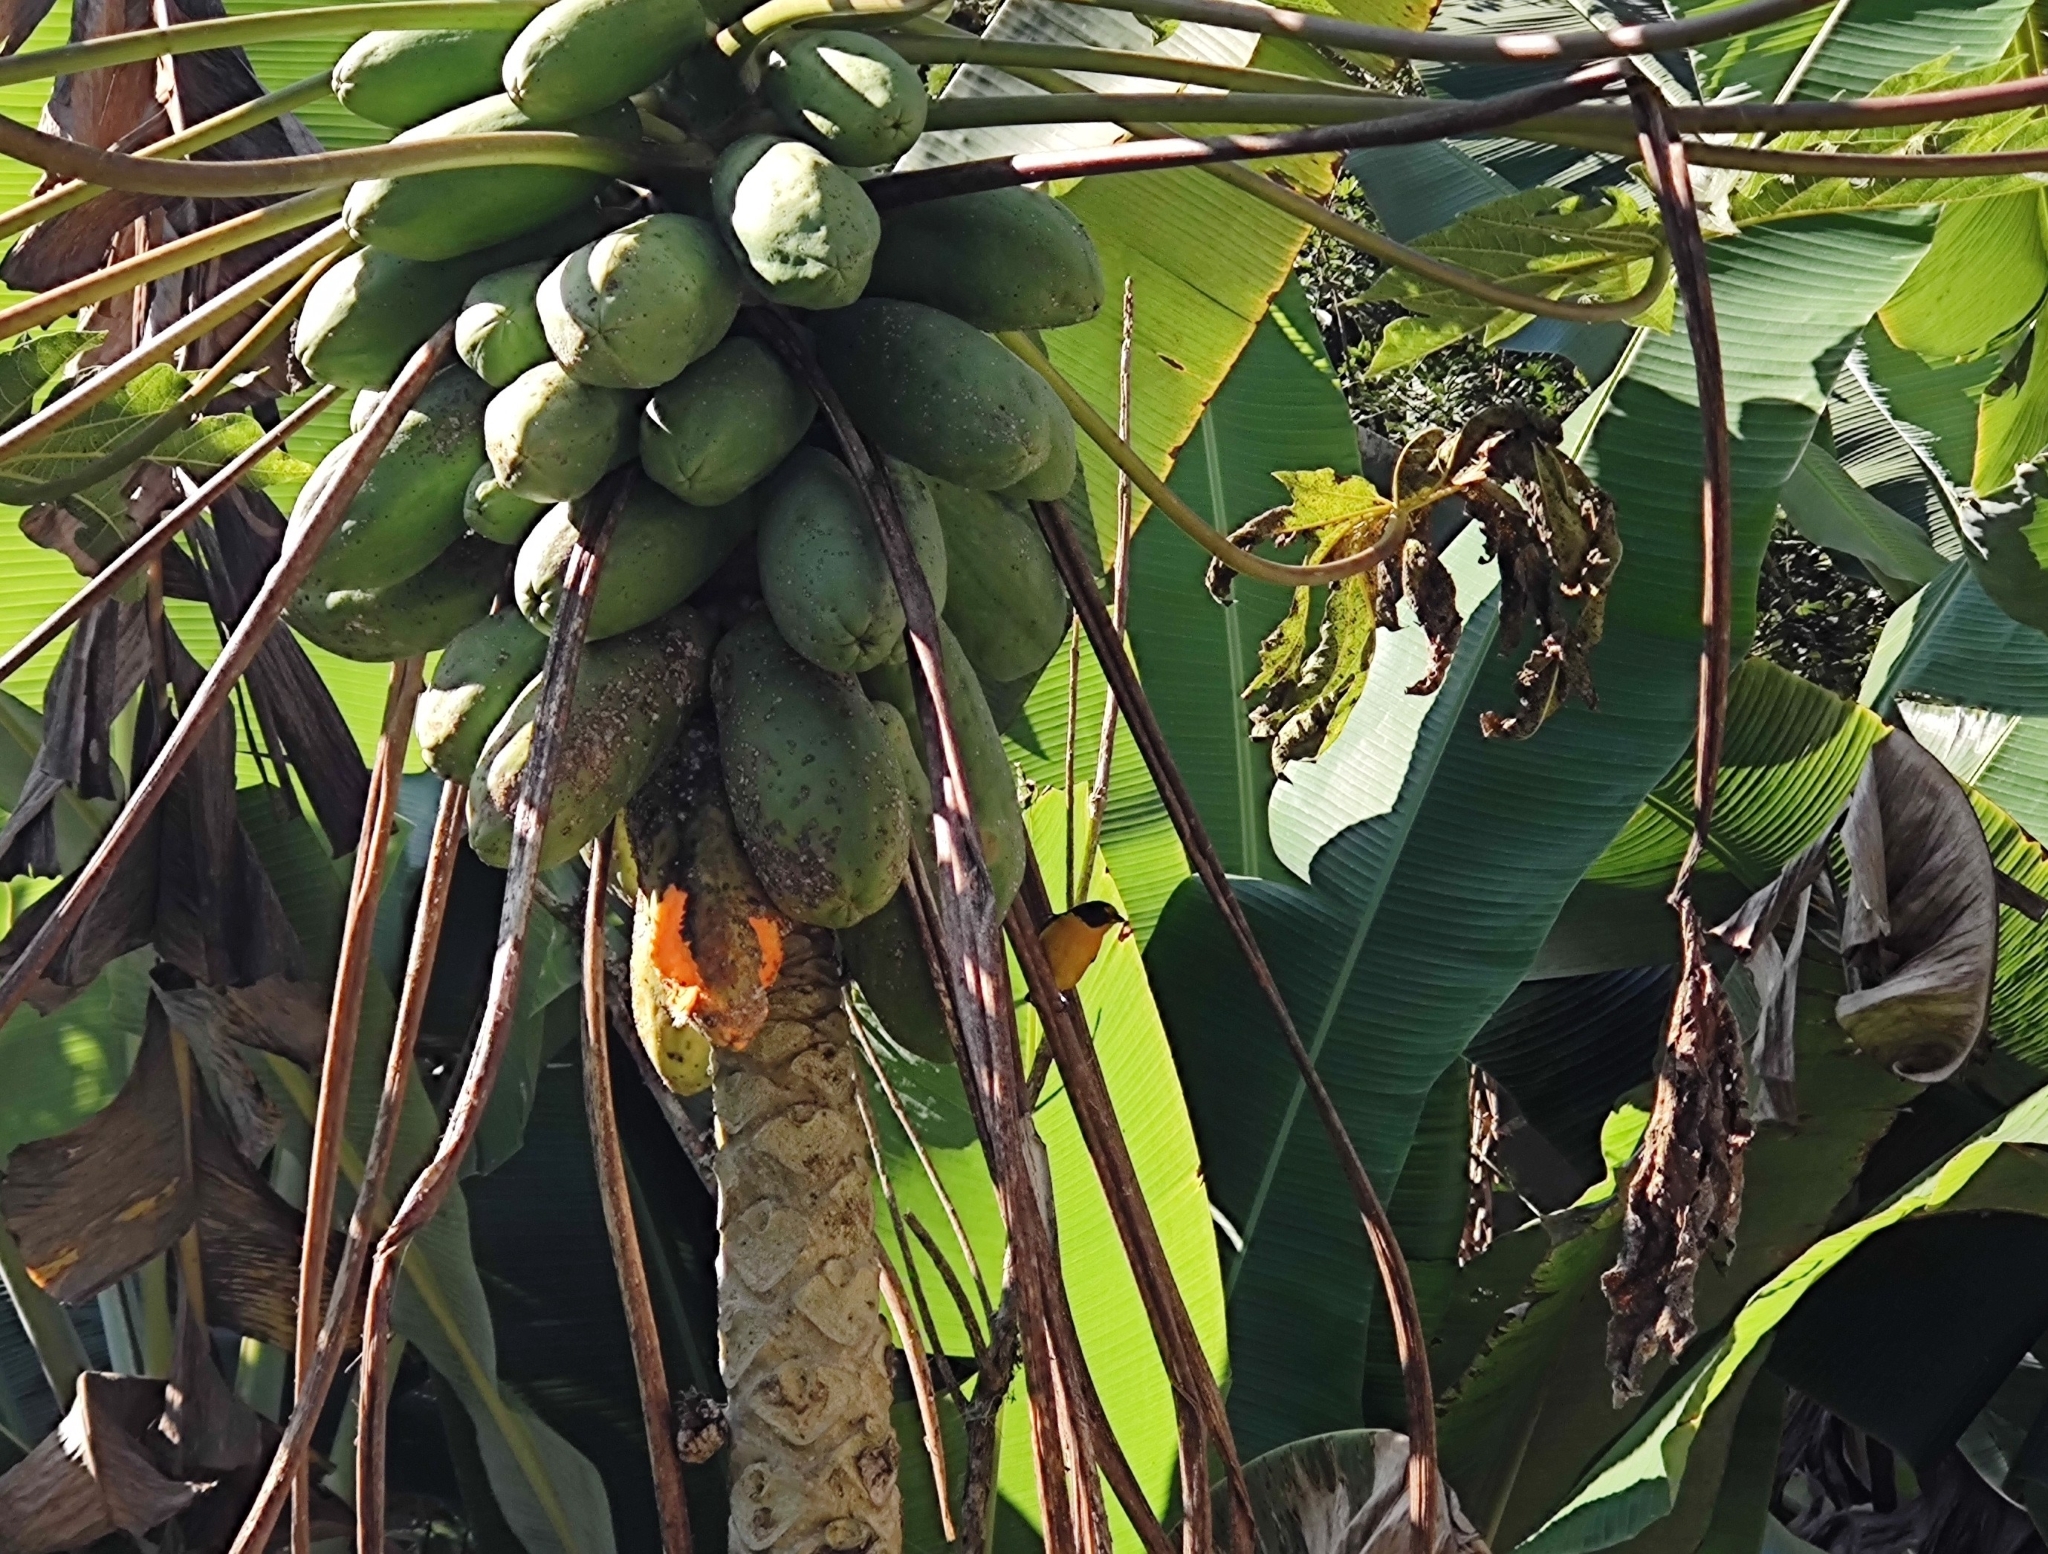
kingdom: Animalia
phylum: Chordata
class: Aves
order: Passeriformes
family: Fringillidae
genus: Euphonia
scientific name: Euphonia violacea
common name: Violaceous euphonia
